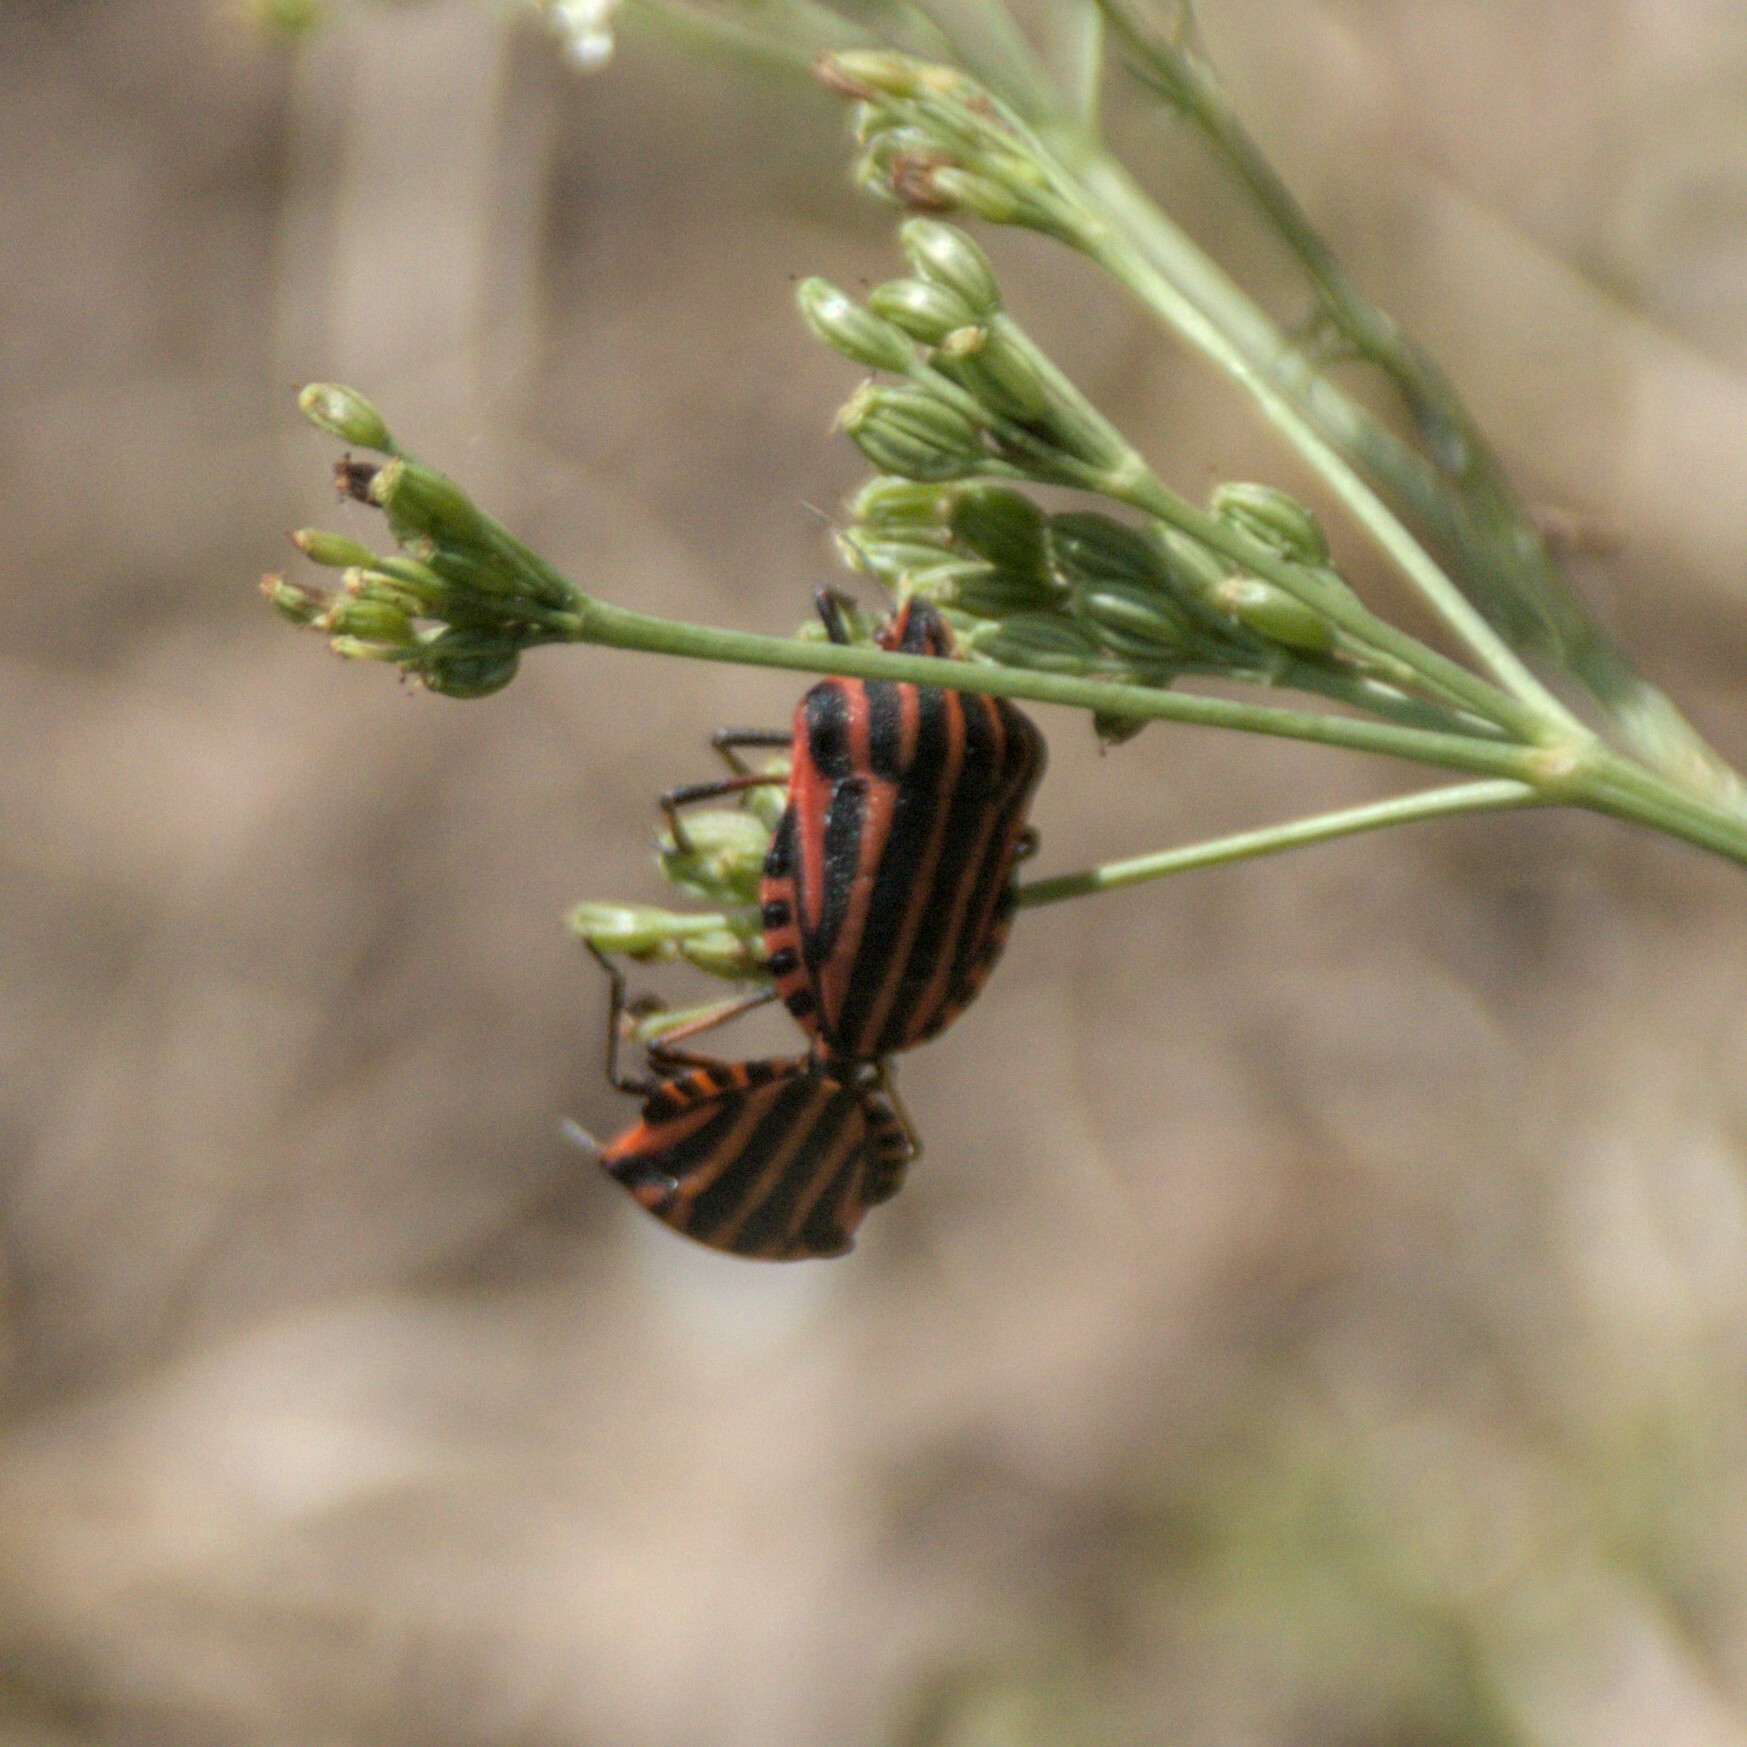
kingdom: Animalia
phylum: Arthropoda
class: Insecta
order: Hemiptera
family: Pentatomidae
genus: Graphosoma
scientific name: Graphosoma italicum
